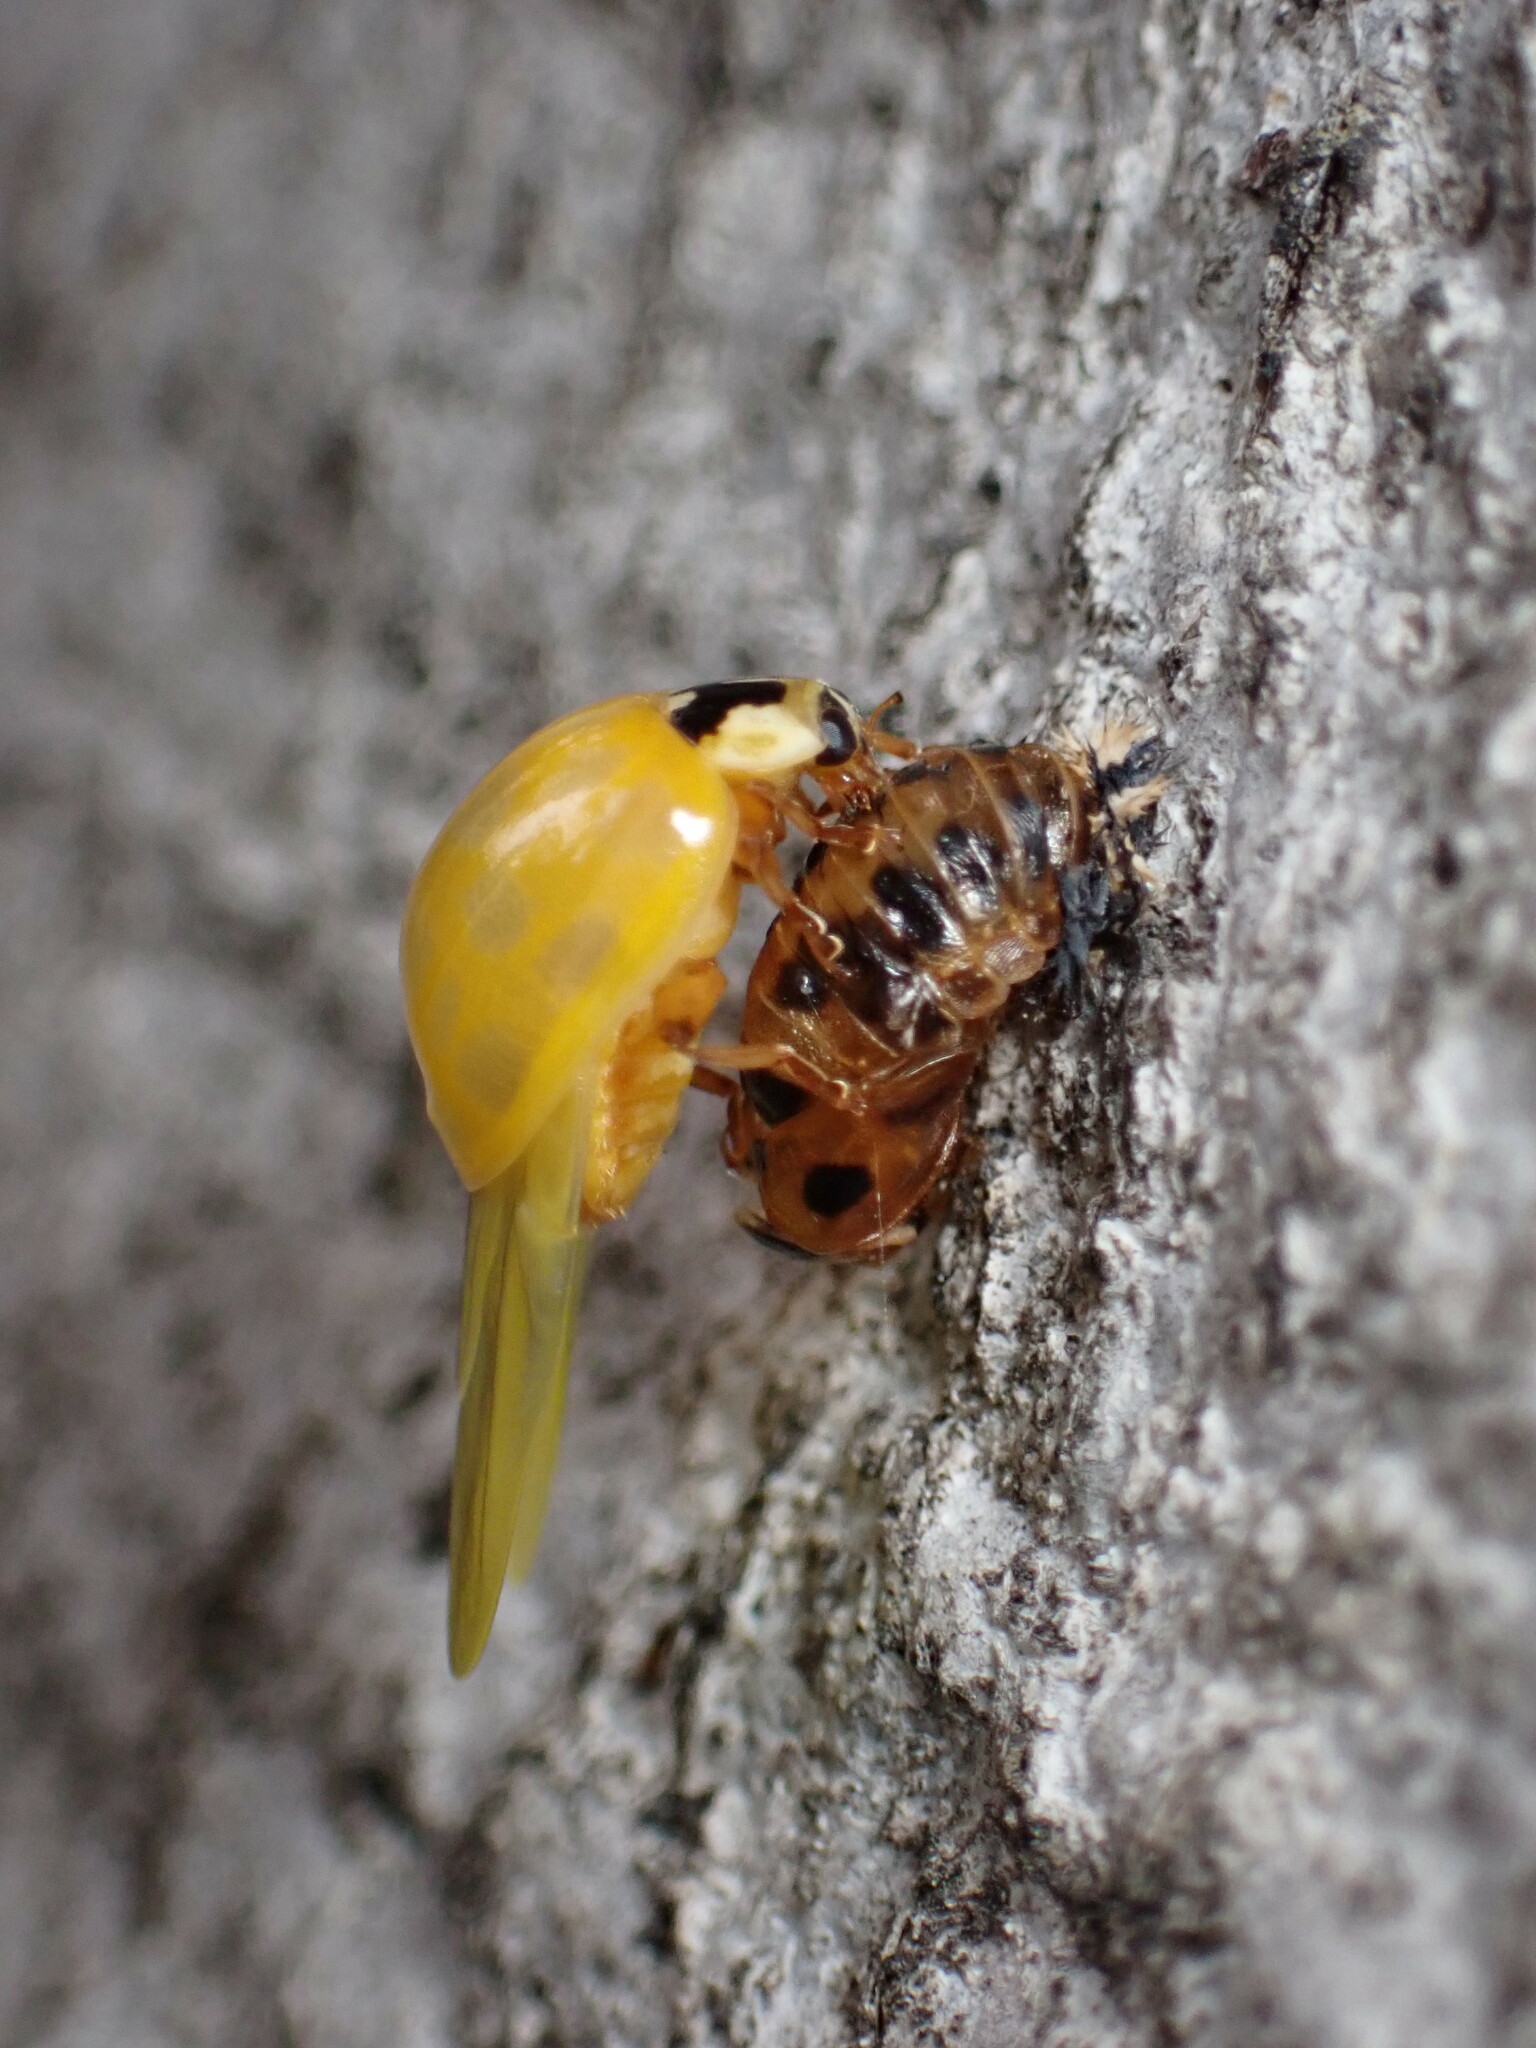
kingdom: Animalia
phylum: Arthropoda
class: Insecta
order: Coleoptera
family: Coccinellidae
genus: Harmonia
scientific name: Harmonia axyridis
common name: Harlequin ladybird
